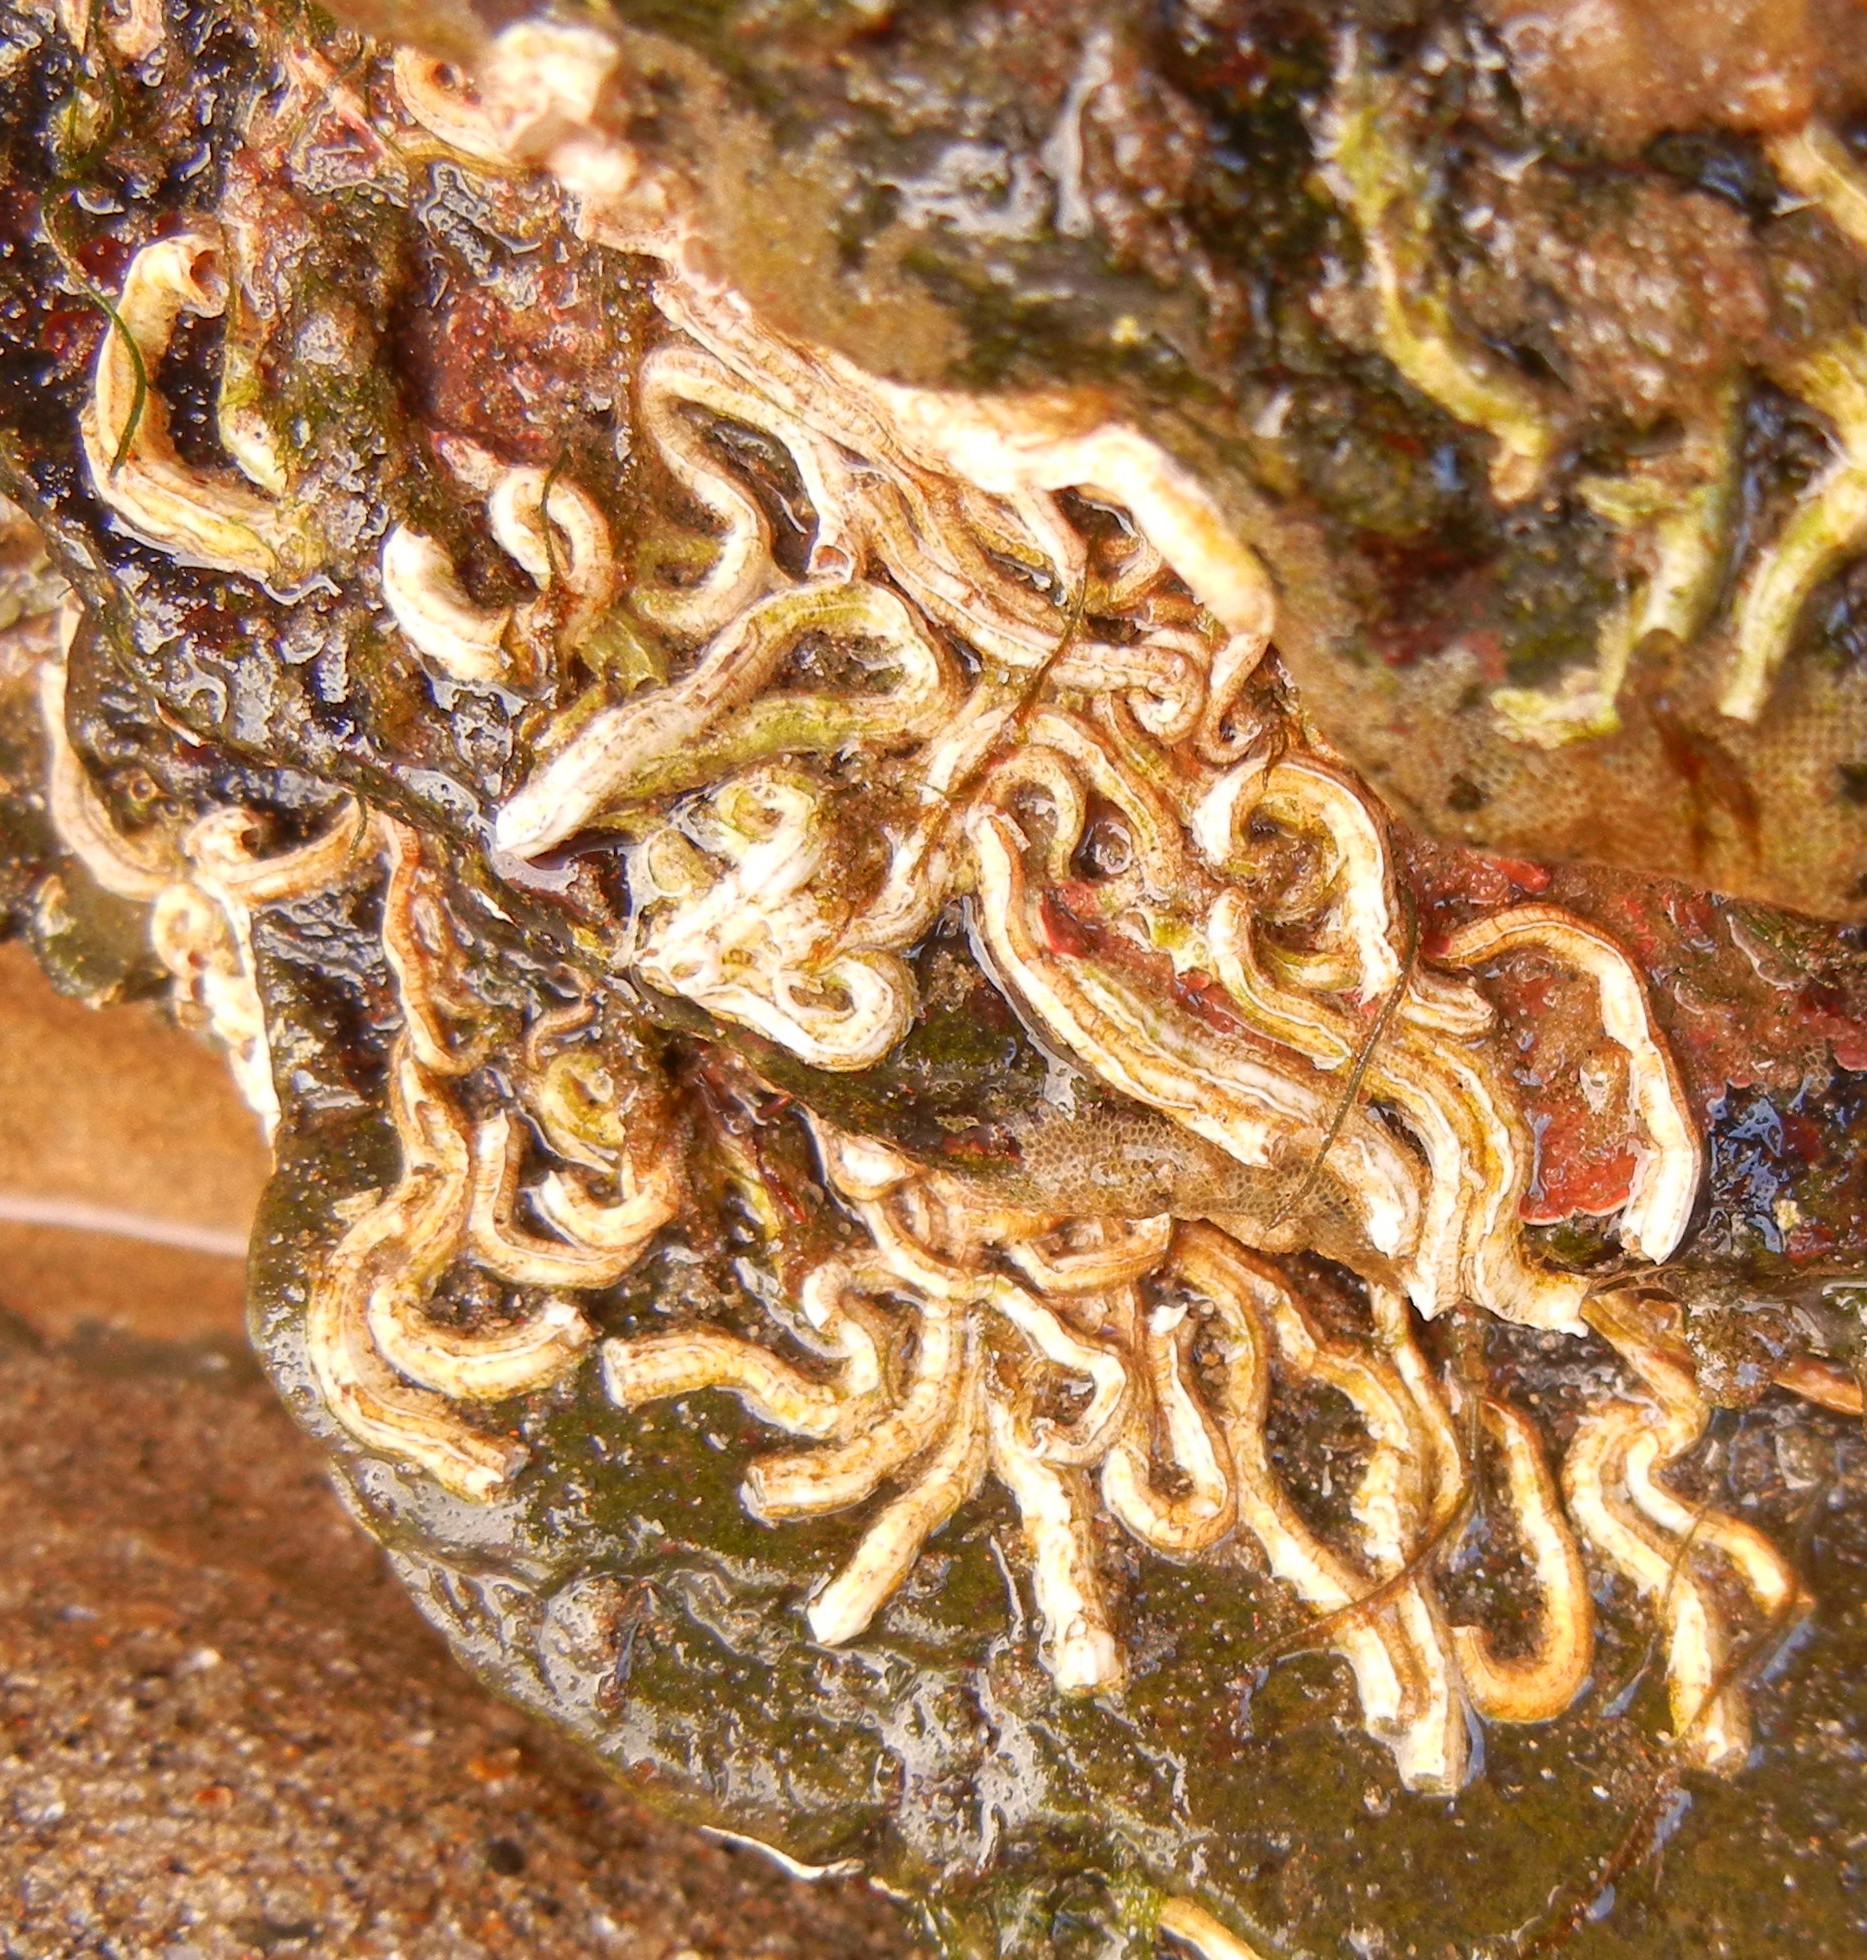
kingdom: Animalia
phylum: Annelida
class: Polychaeta
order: Sabellida
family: Serpulidae
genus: Spirobranchus
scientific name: Spirobranchus lamarcki
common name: Keelworm
